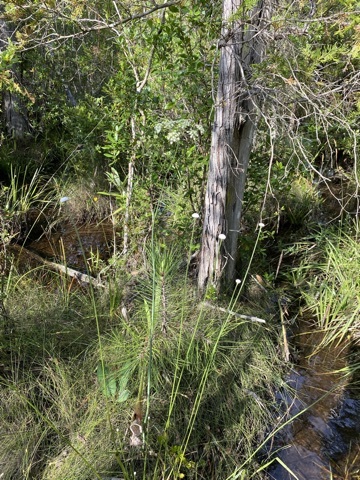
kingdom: Plantae
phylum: Tracheophyta
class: Magnoliopsida
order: Apiales
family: Apiaceae
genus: Tiedemannia
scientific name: Tiedemannia filiformis
